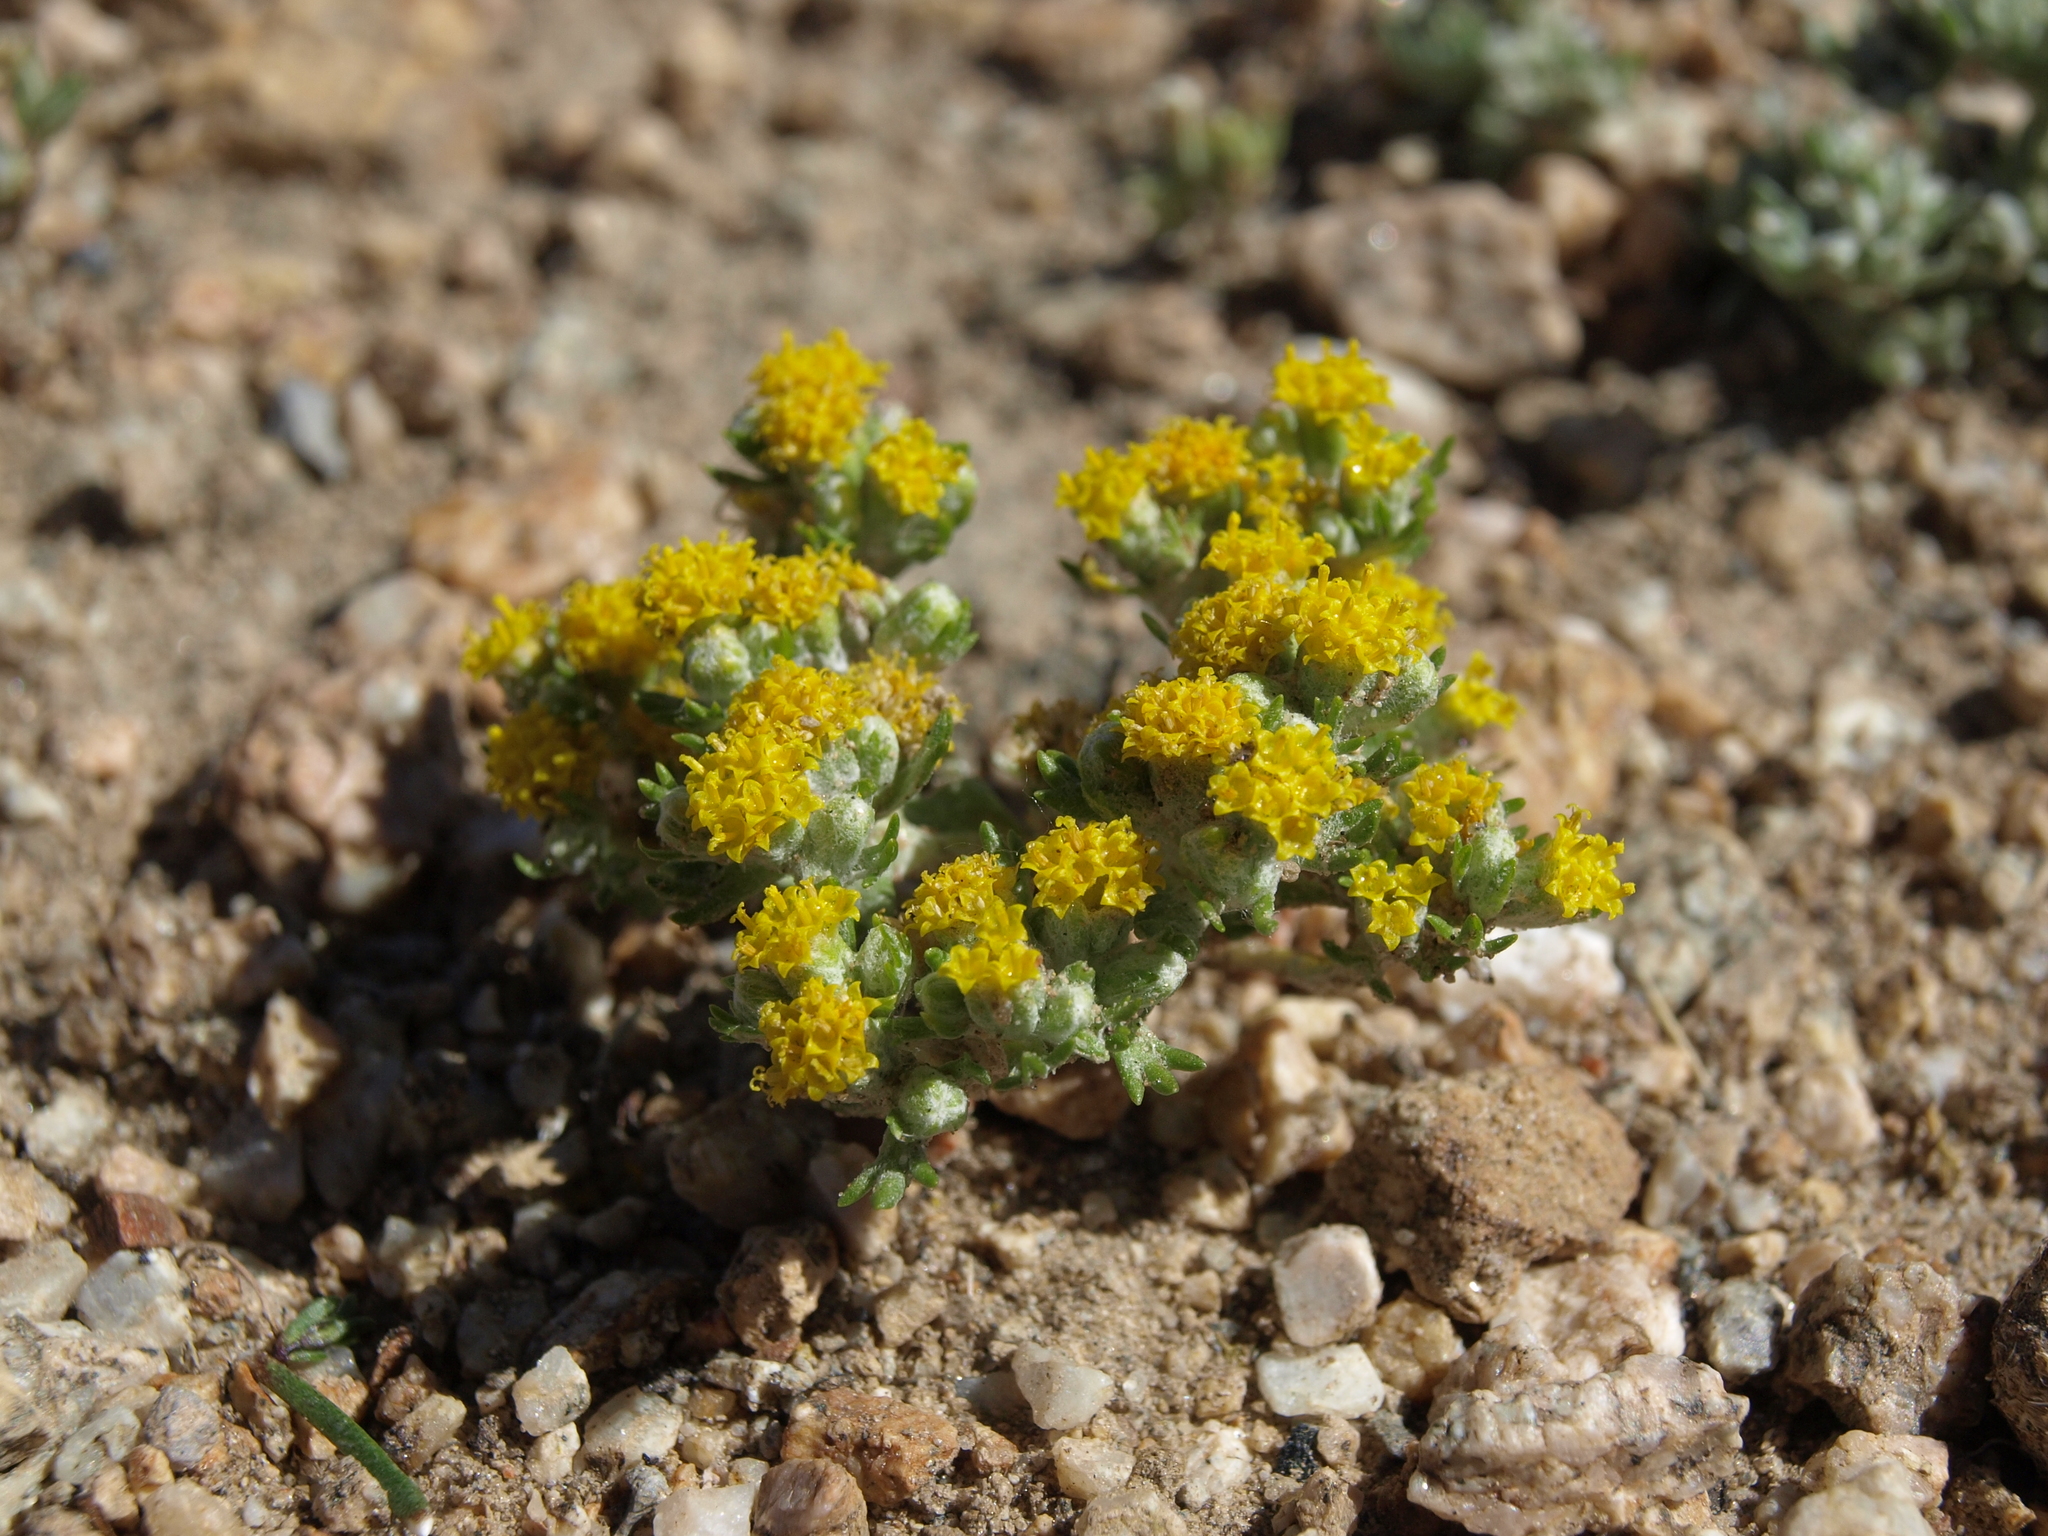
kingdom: Plantae
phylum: Tracheophyta
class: Magnoliopsida
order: Asterales
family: Asteraceae
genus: Eriophyllum
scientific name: Eriophyllum pringlei
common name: Pringle's woolly-sunflower
